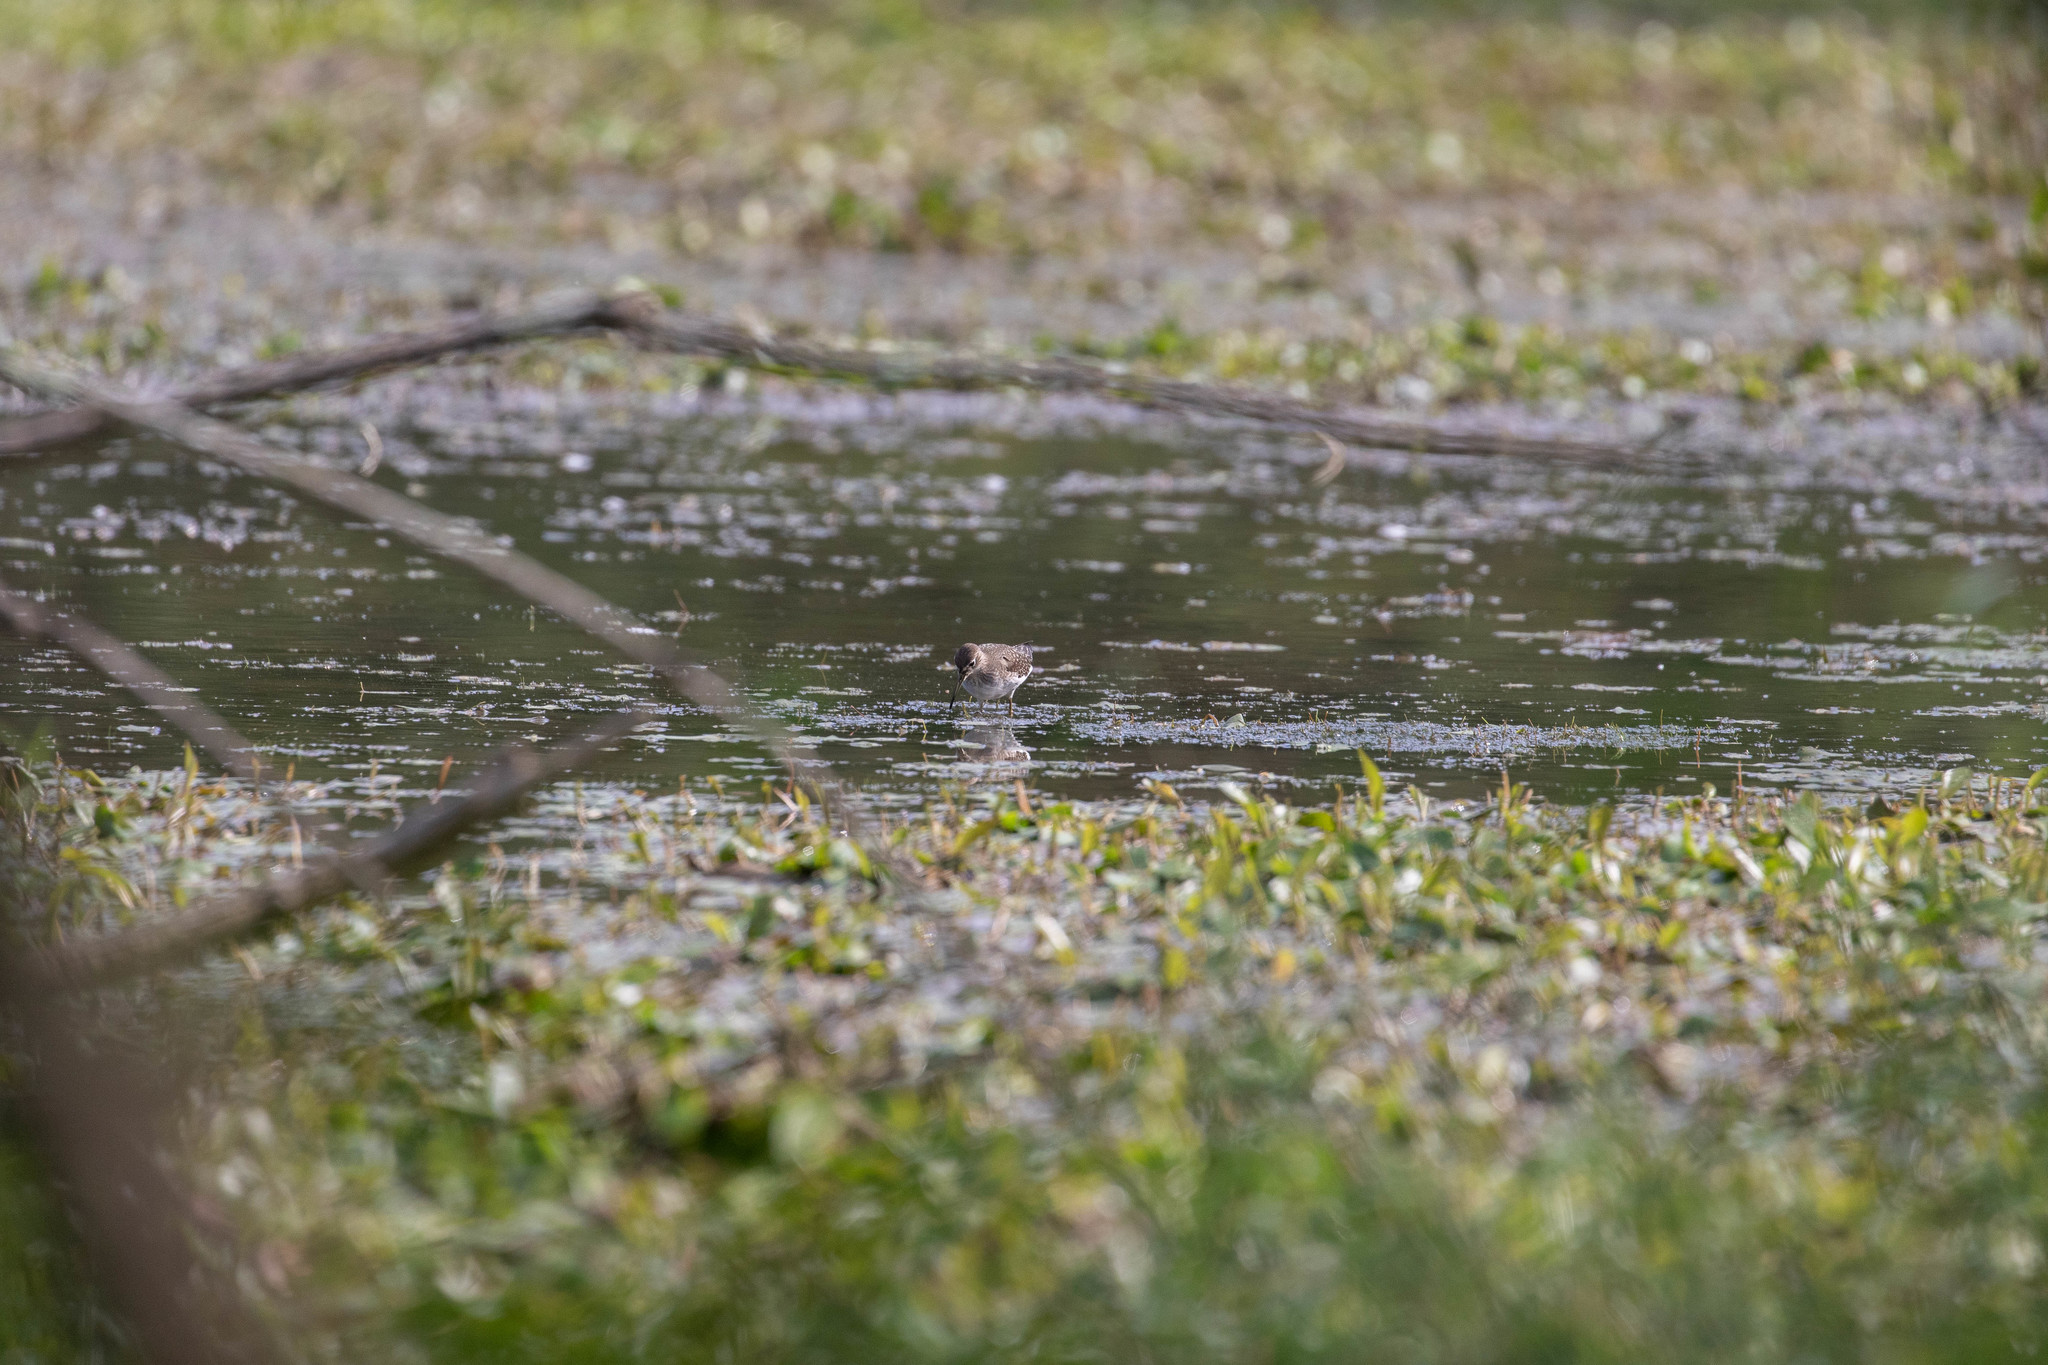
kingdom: Animalia
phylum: Chordata
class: Aves
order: Charadriiformes
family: Scolopacidae
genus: Tringa
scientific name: Tringa solitaria
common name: Solitary sandpiper
